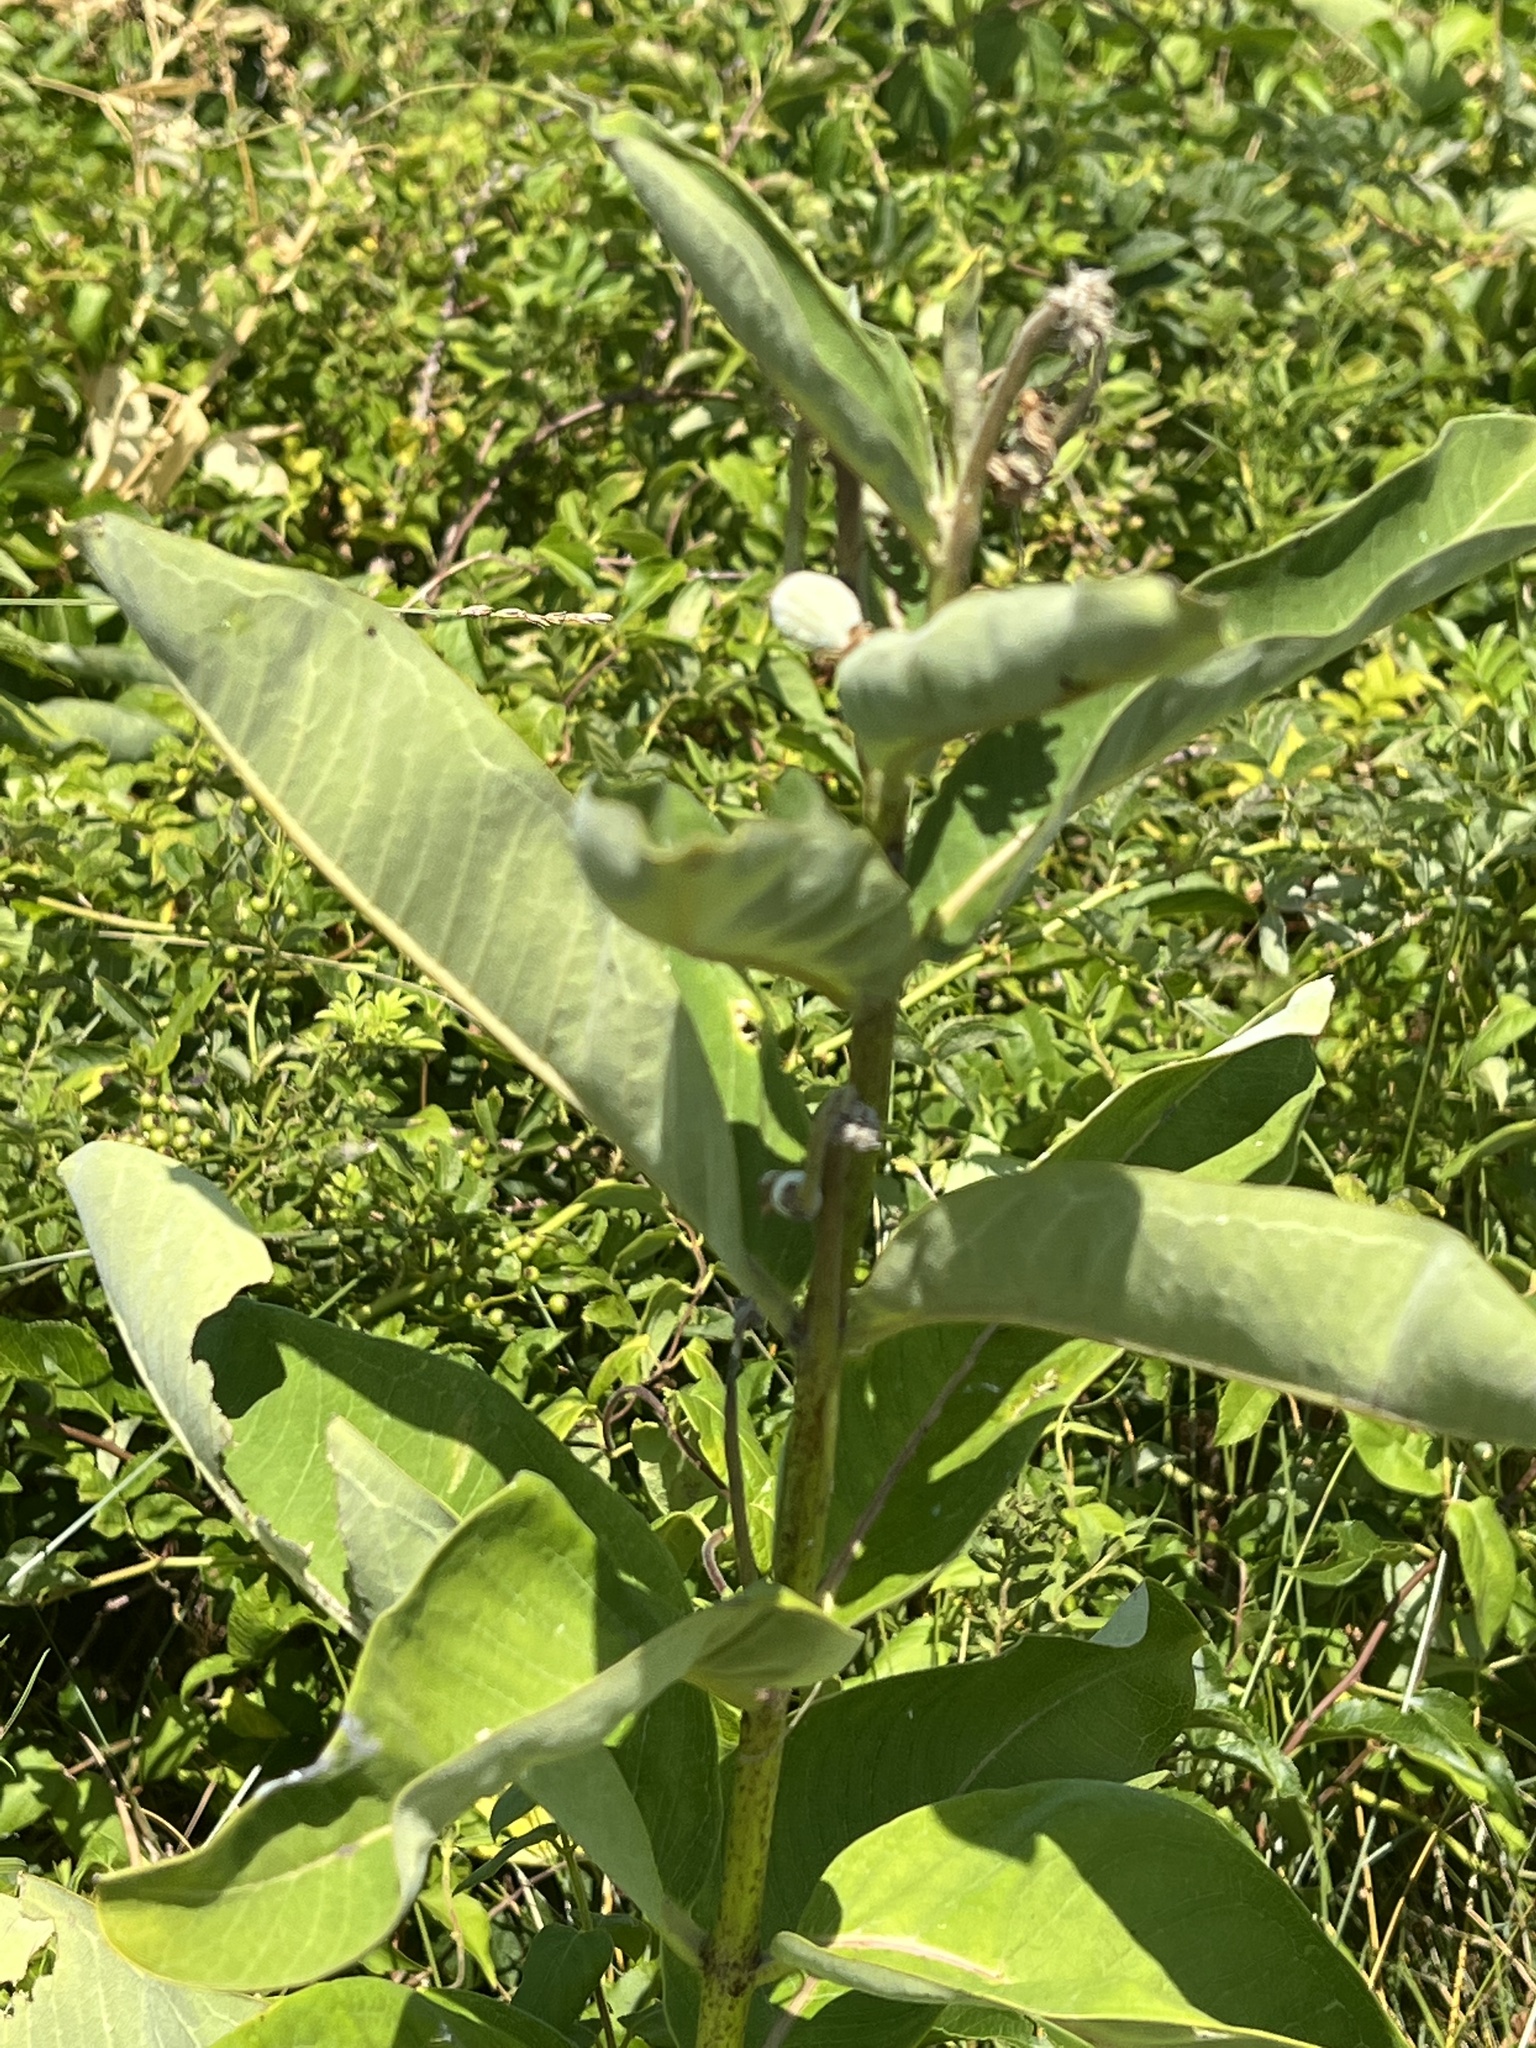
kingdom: Plantae
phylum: Tracheophyta
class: Magnoliopsida
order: Gentianales
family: Apocynaceae
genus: Asclepias
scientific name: Asclepias syriaca
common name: Common milkweed
